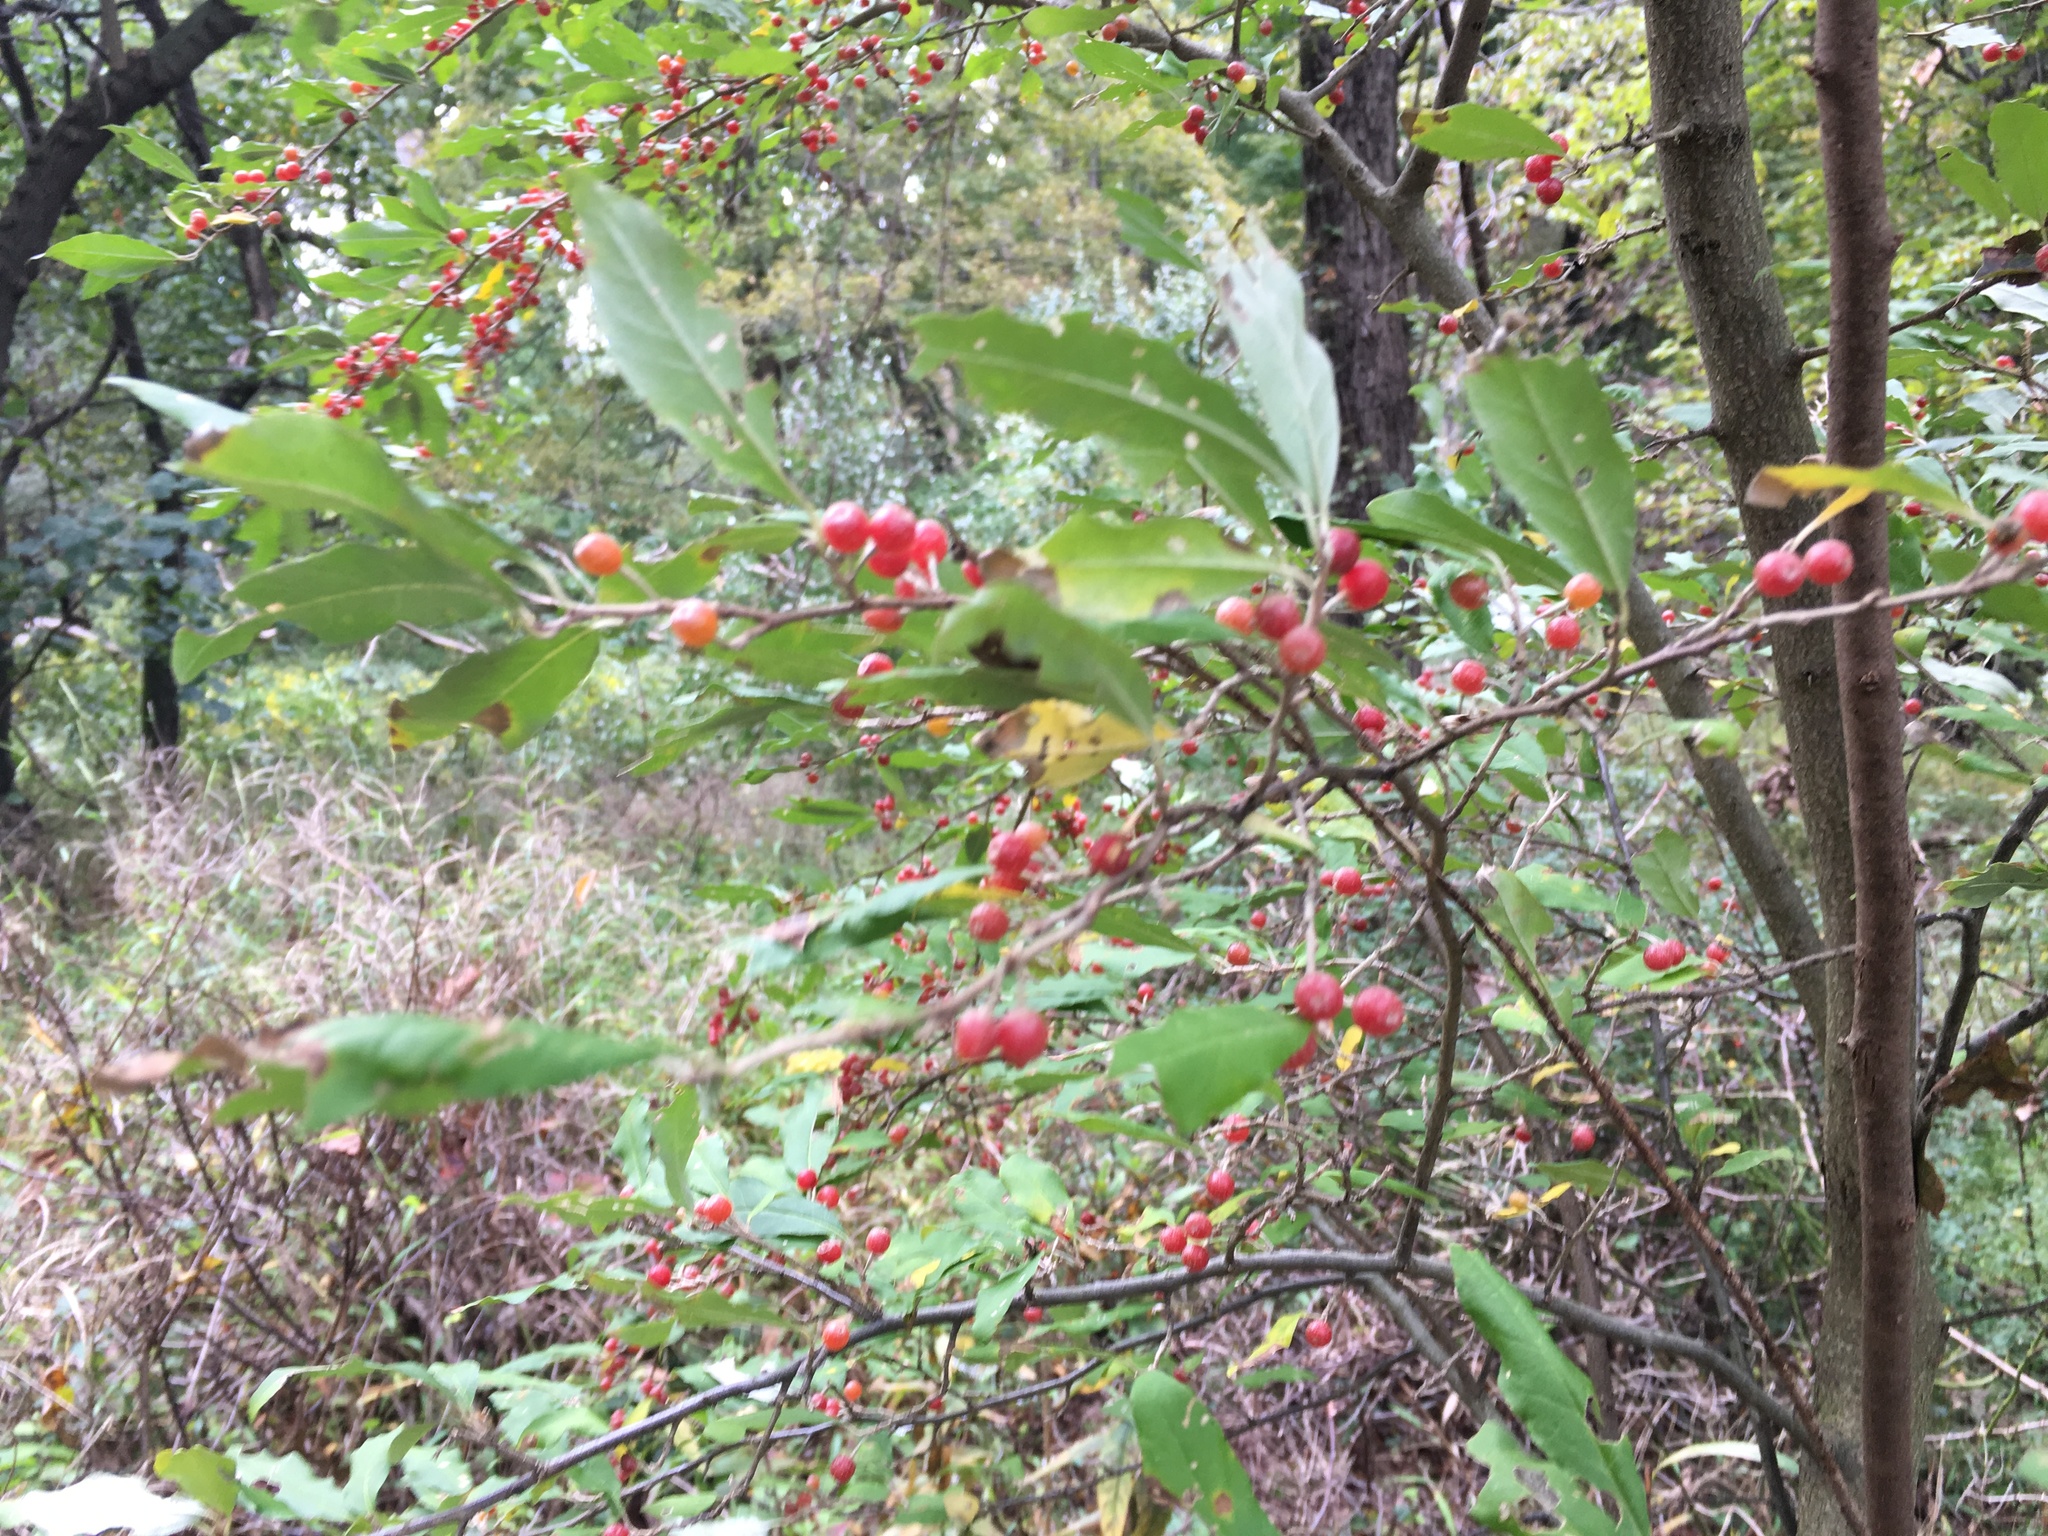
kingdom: Plantae
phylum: Tracheophyta
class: Magnoliopsida
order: Rosales
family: Elaeagnaceae
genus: Elaeagnus
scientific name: Elaeagnus umbellata
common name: Autumn olive
